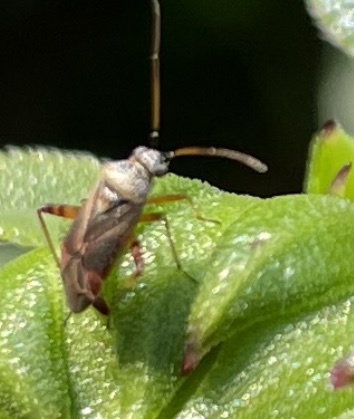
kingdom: Animalia
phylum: Arthropoda
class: Insecta
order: Hemiptera
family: Miridae
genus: Polymerus
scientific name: Polymerus basalis
